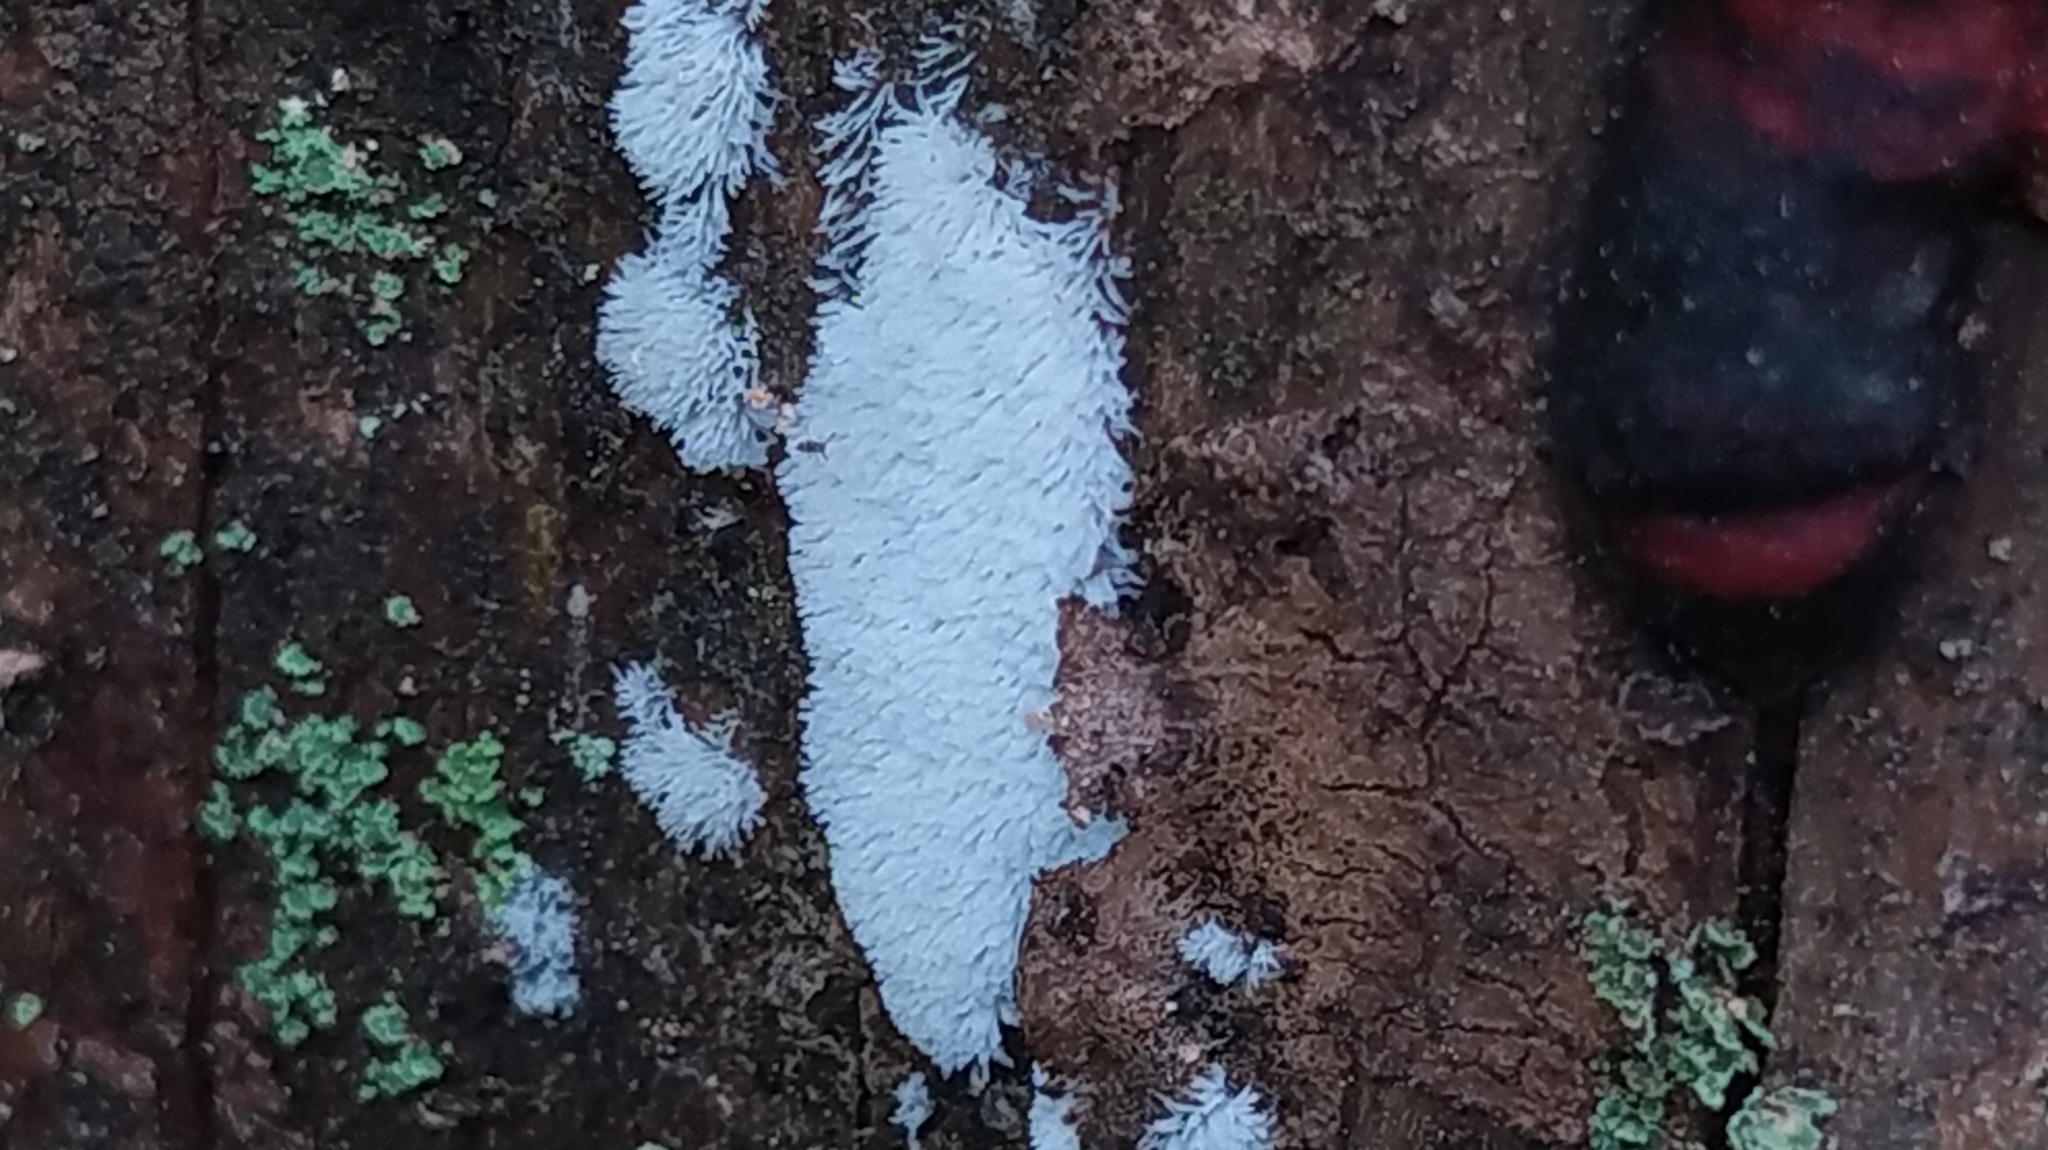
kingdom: Protozoa
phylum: Mycetozoa
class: Protosteliomycetes
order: Ceratiomyxales
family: Ceratiomyxaceae
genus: Ceratiomyxa
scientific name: Ceratiomyxa fruticulosa
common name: Honeycomb coral slime mold
